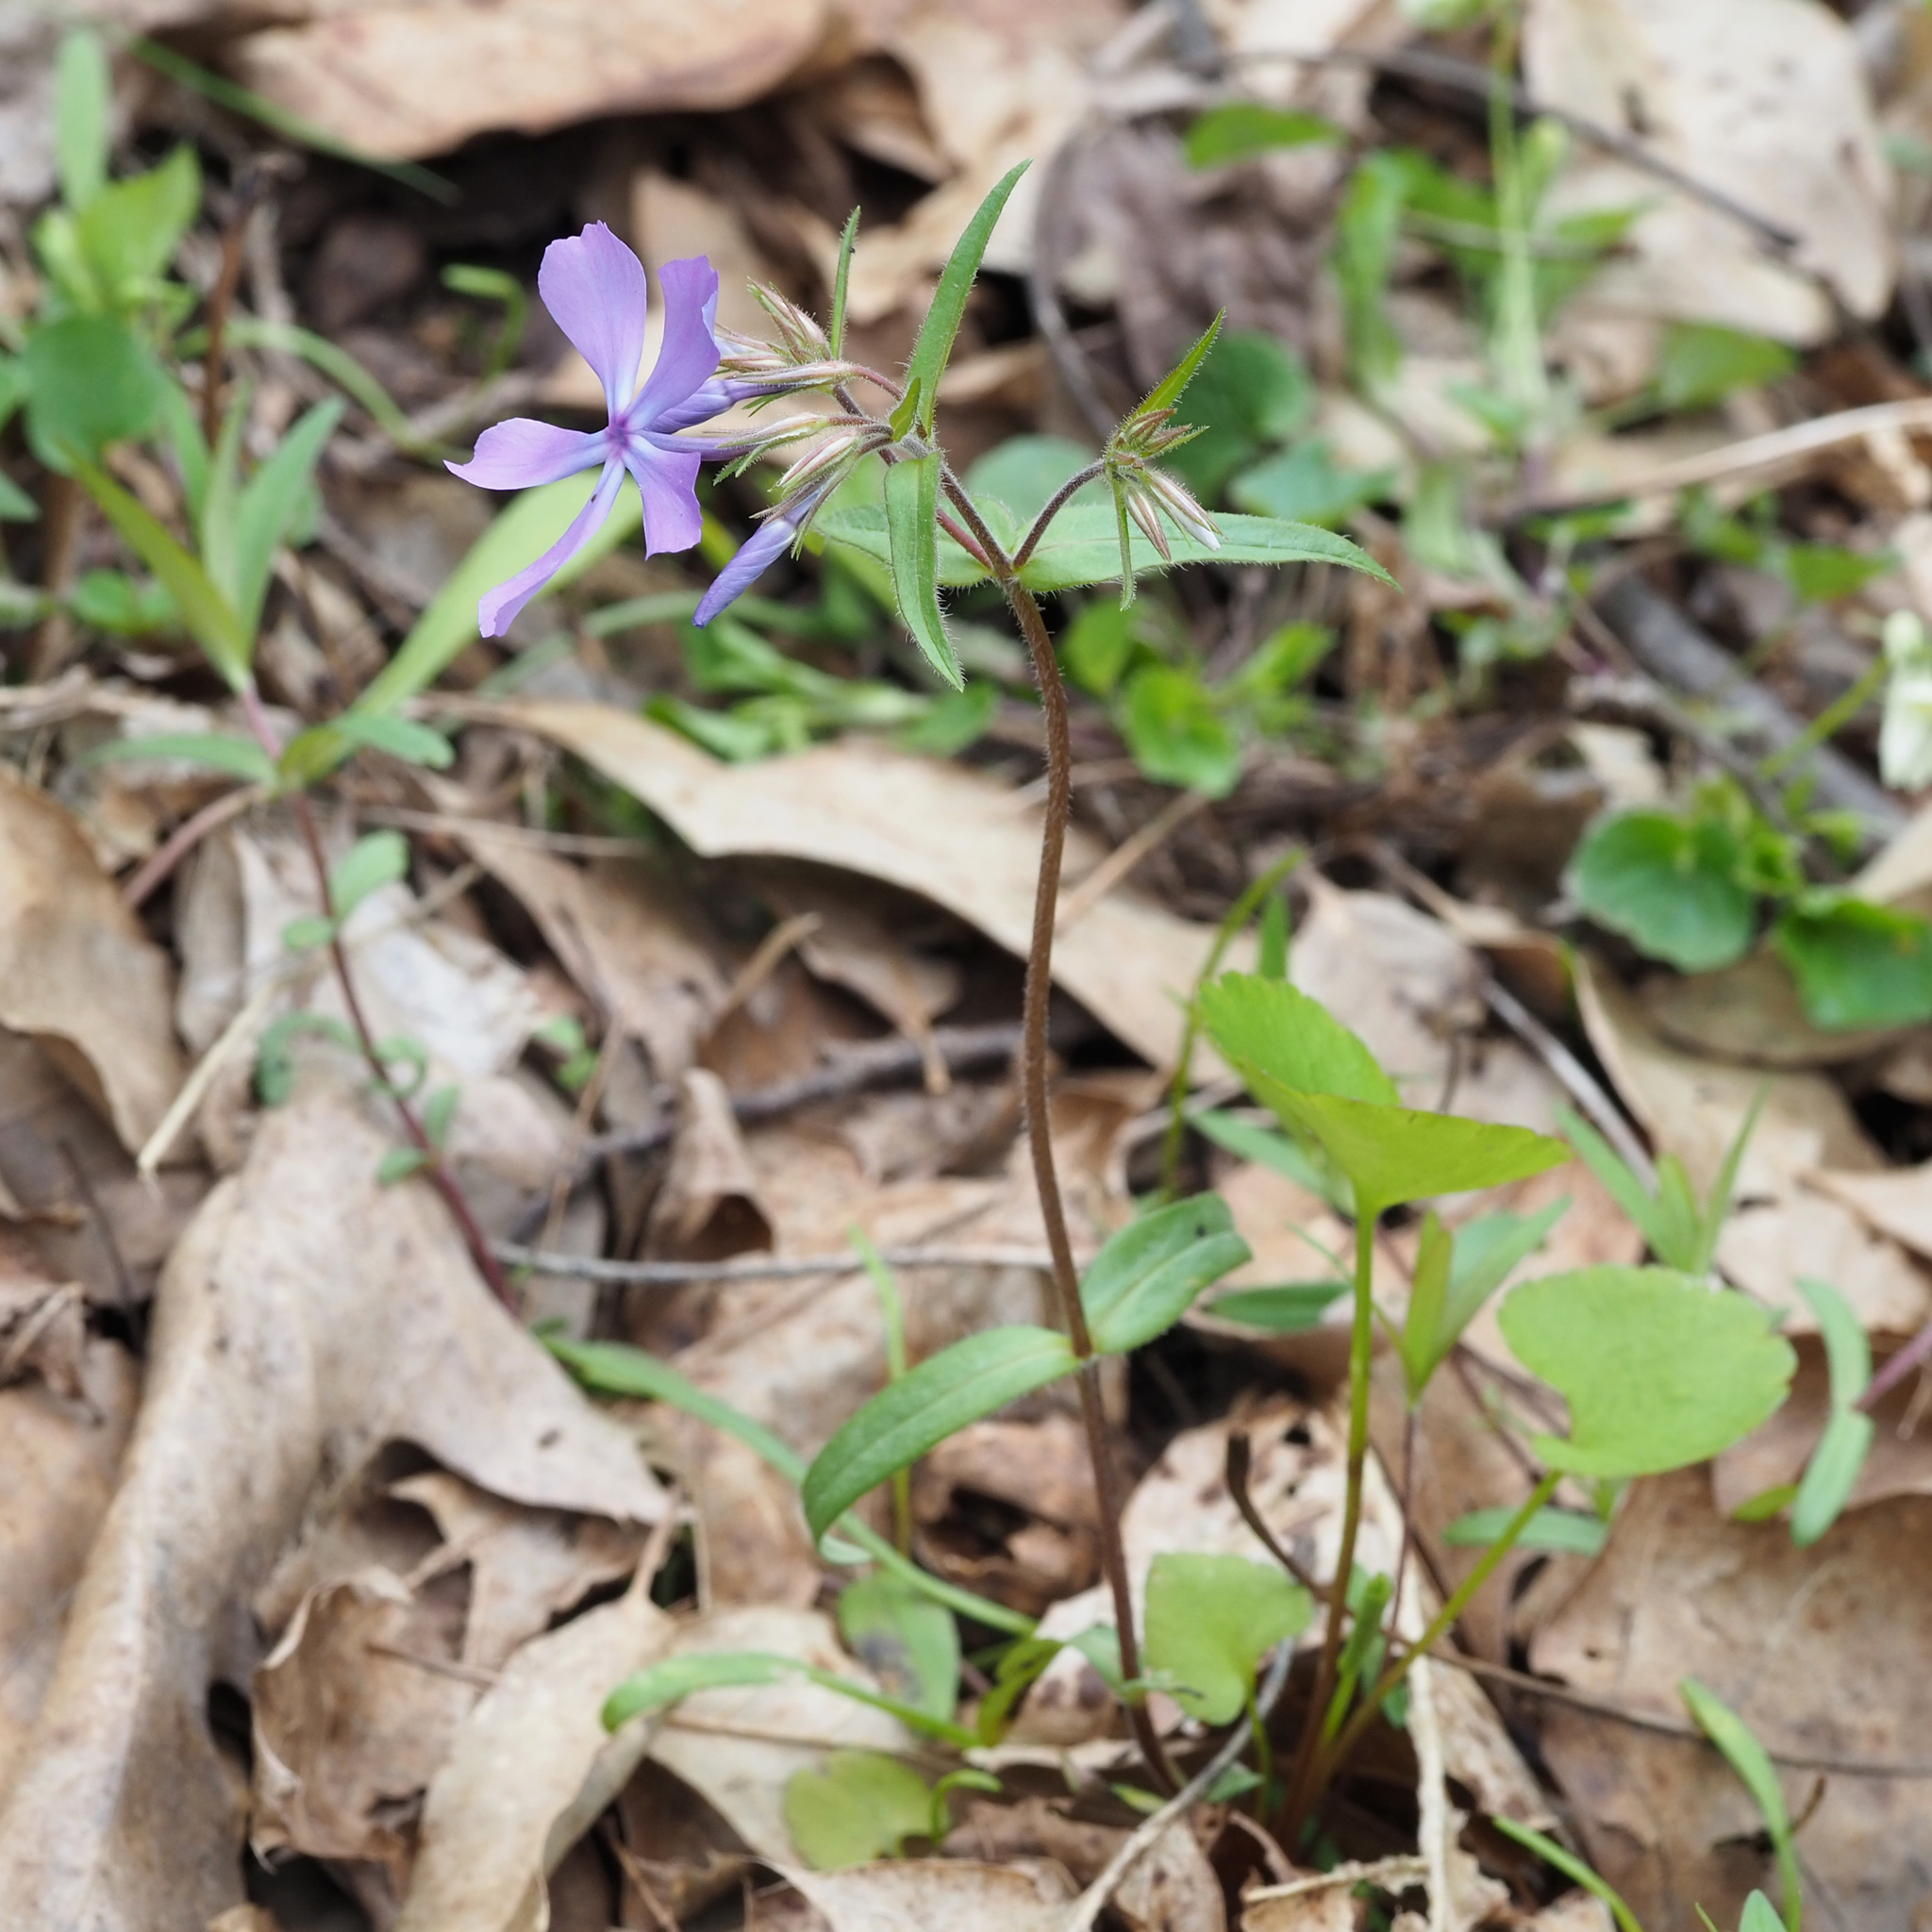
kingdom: Plantae
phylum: Tracheophyta
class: Magnoliopsida
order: Ericales
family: Polemoniaceae
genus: Phlox
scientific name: Phlox divaricata
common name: Blue phlox
